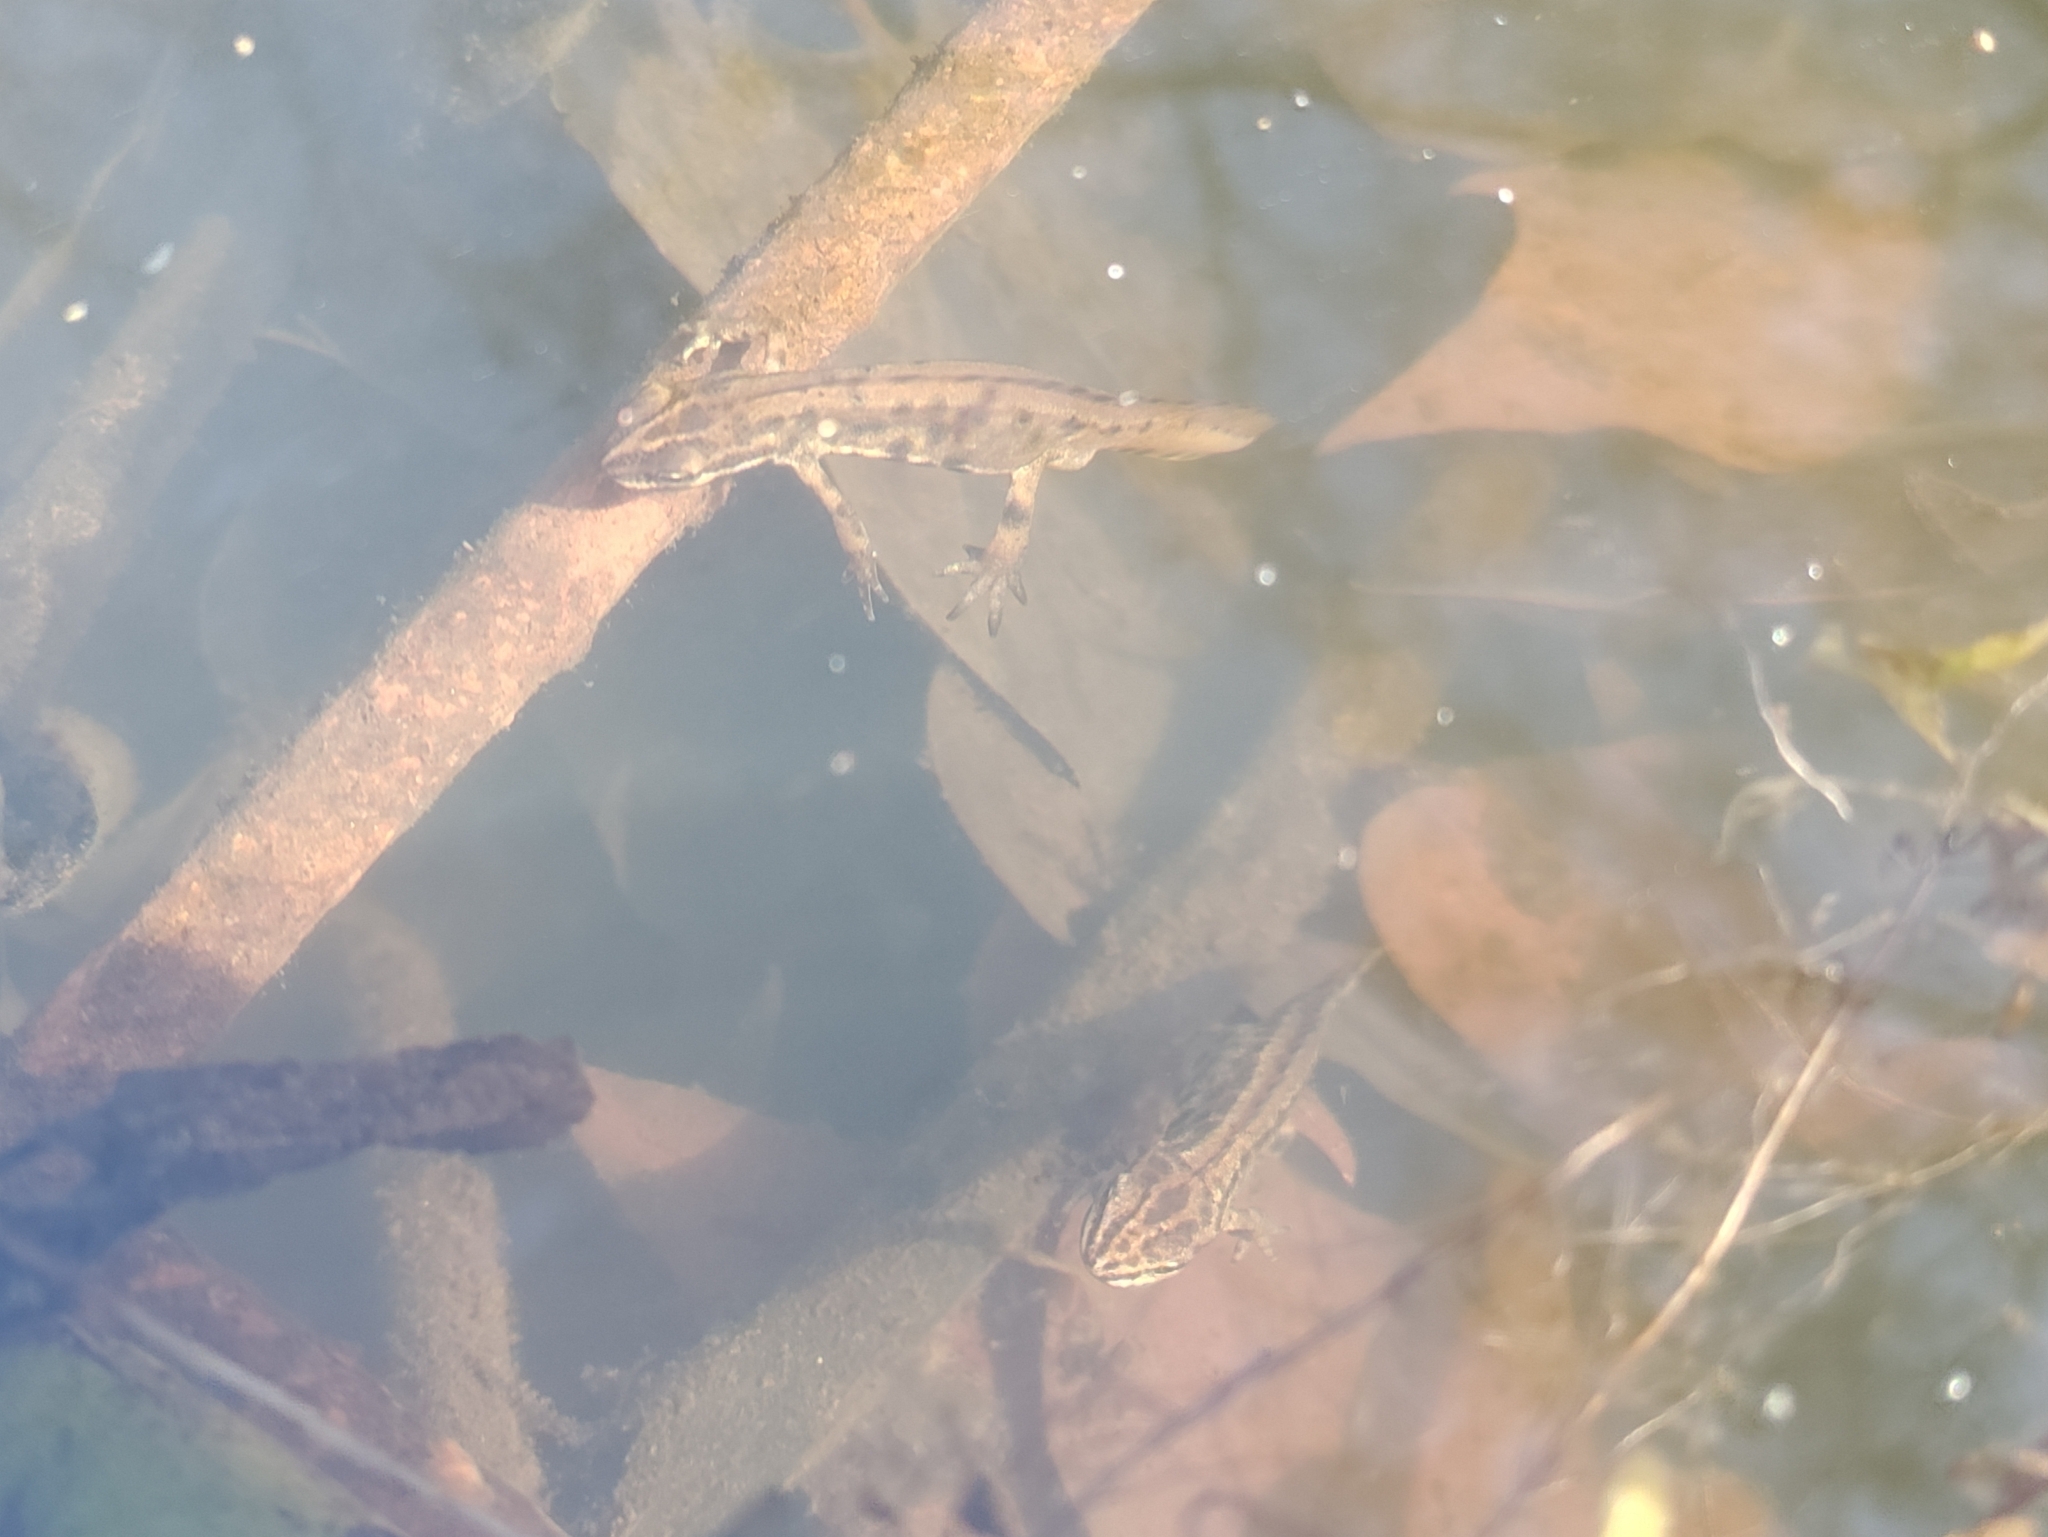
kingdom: Animalia
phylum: Chordata
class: Amphibia
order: Caudata
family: Salamandridae
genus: Lissotriton
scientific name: Lissotriton vulgaris
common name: Smooth newt
